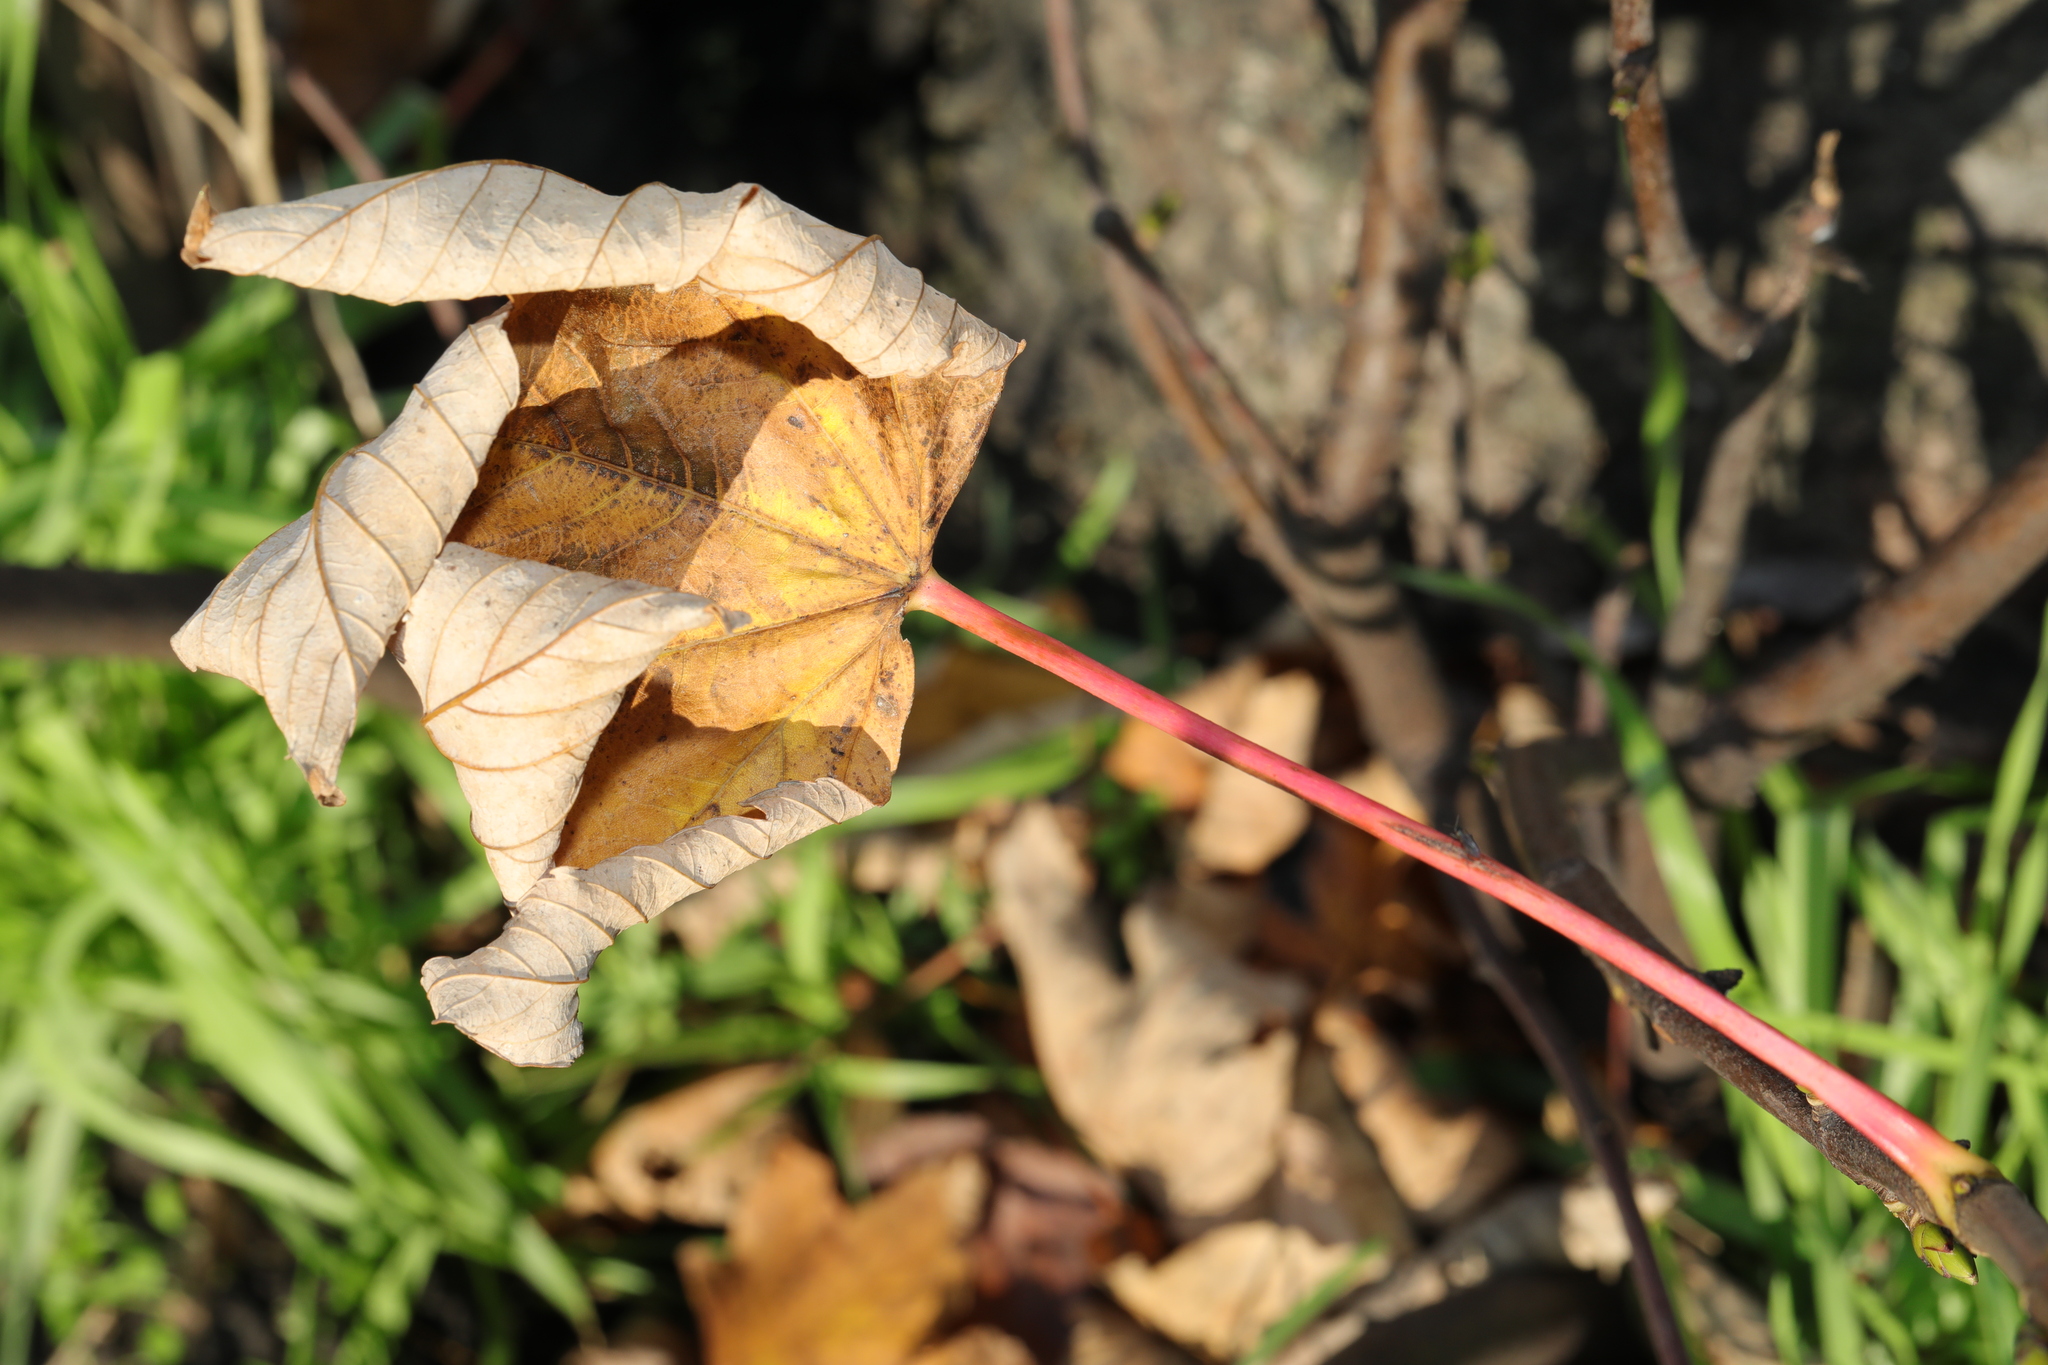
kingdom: Plantae
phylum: Tracheophyta
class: Magnoliopsida
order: Sapindales
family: Sapindaceae
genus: Acer
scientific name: Acer pseudoplatanus
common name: Sycamore
